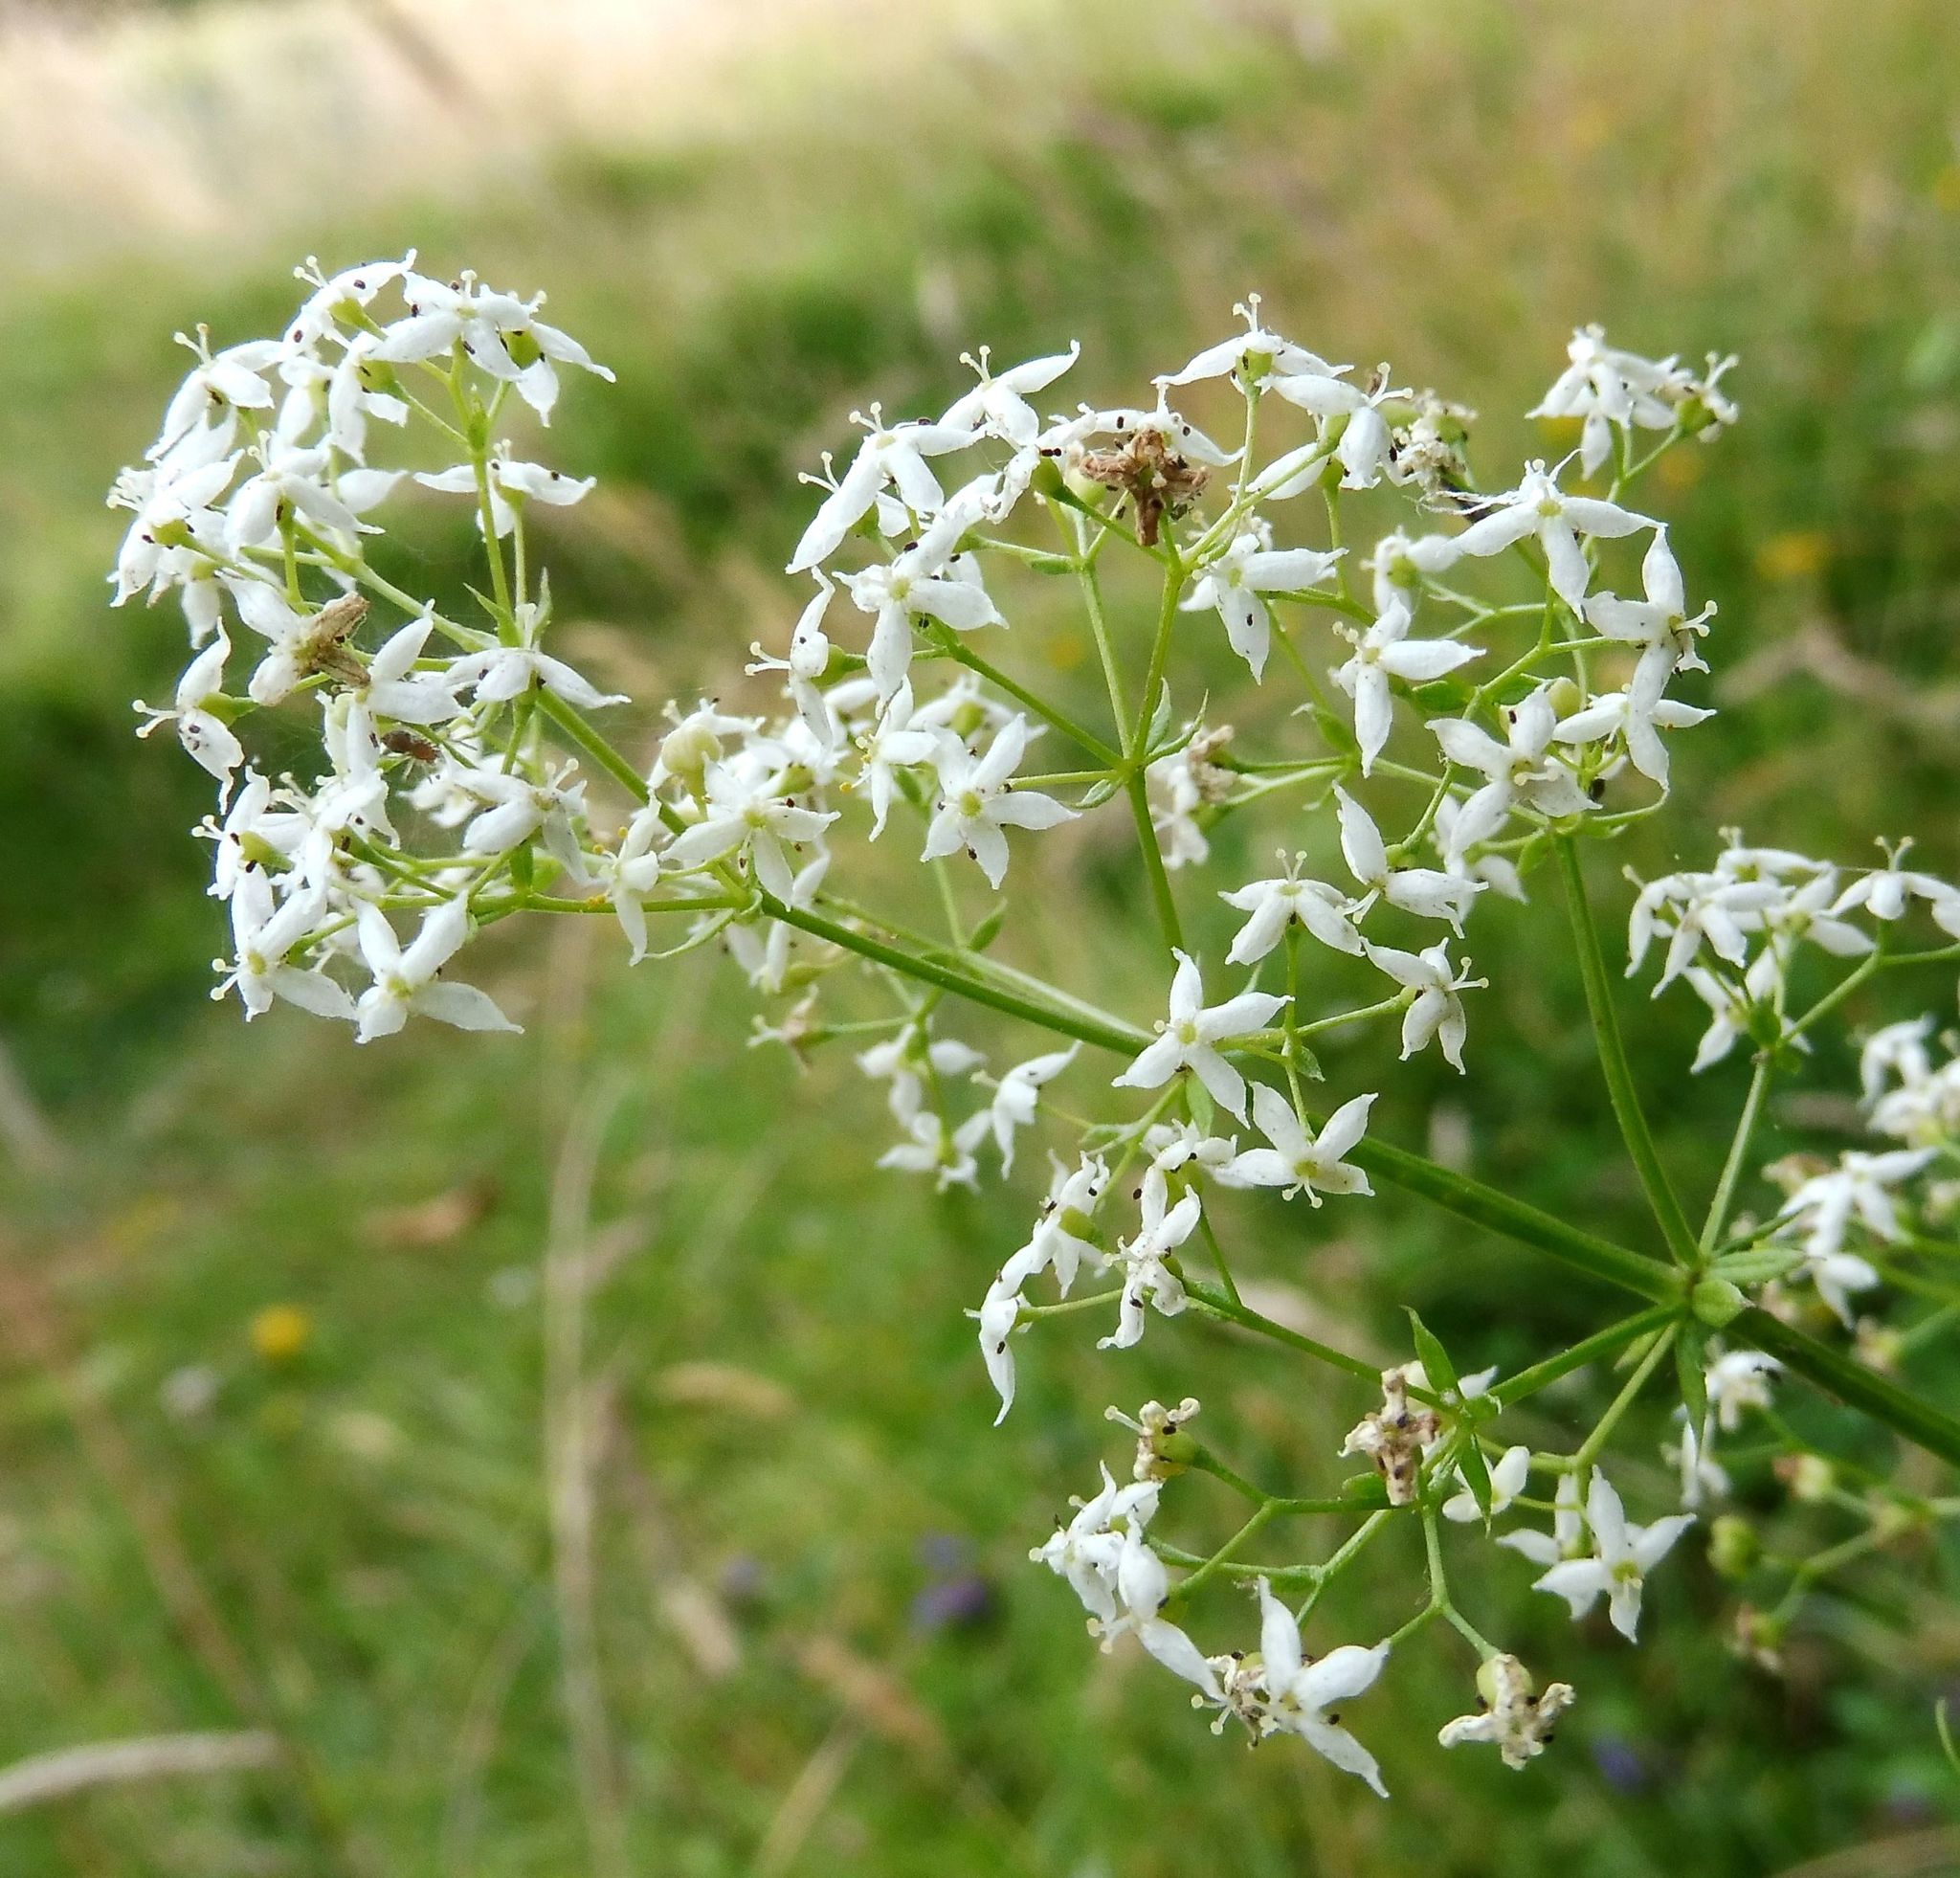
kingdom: Plantae
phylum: Tracheophyta
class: Magnoliopsida
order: Gentianales
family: Rubiaceae
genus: Galium
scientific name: Galium album
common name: White bedstraw
